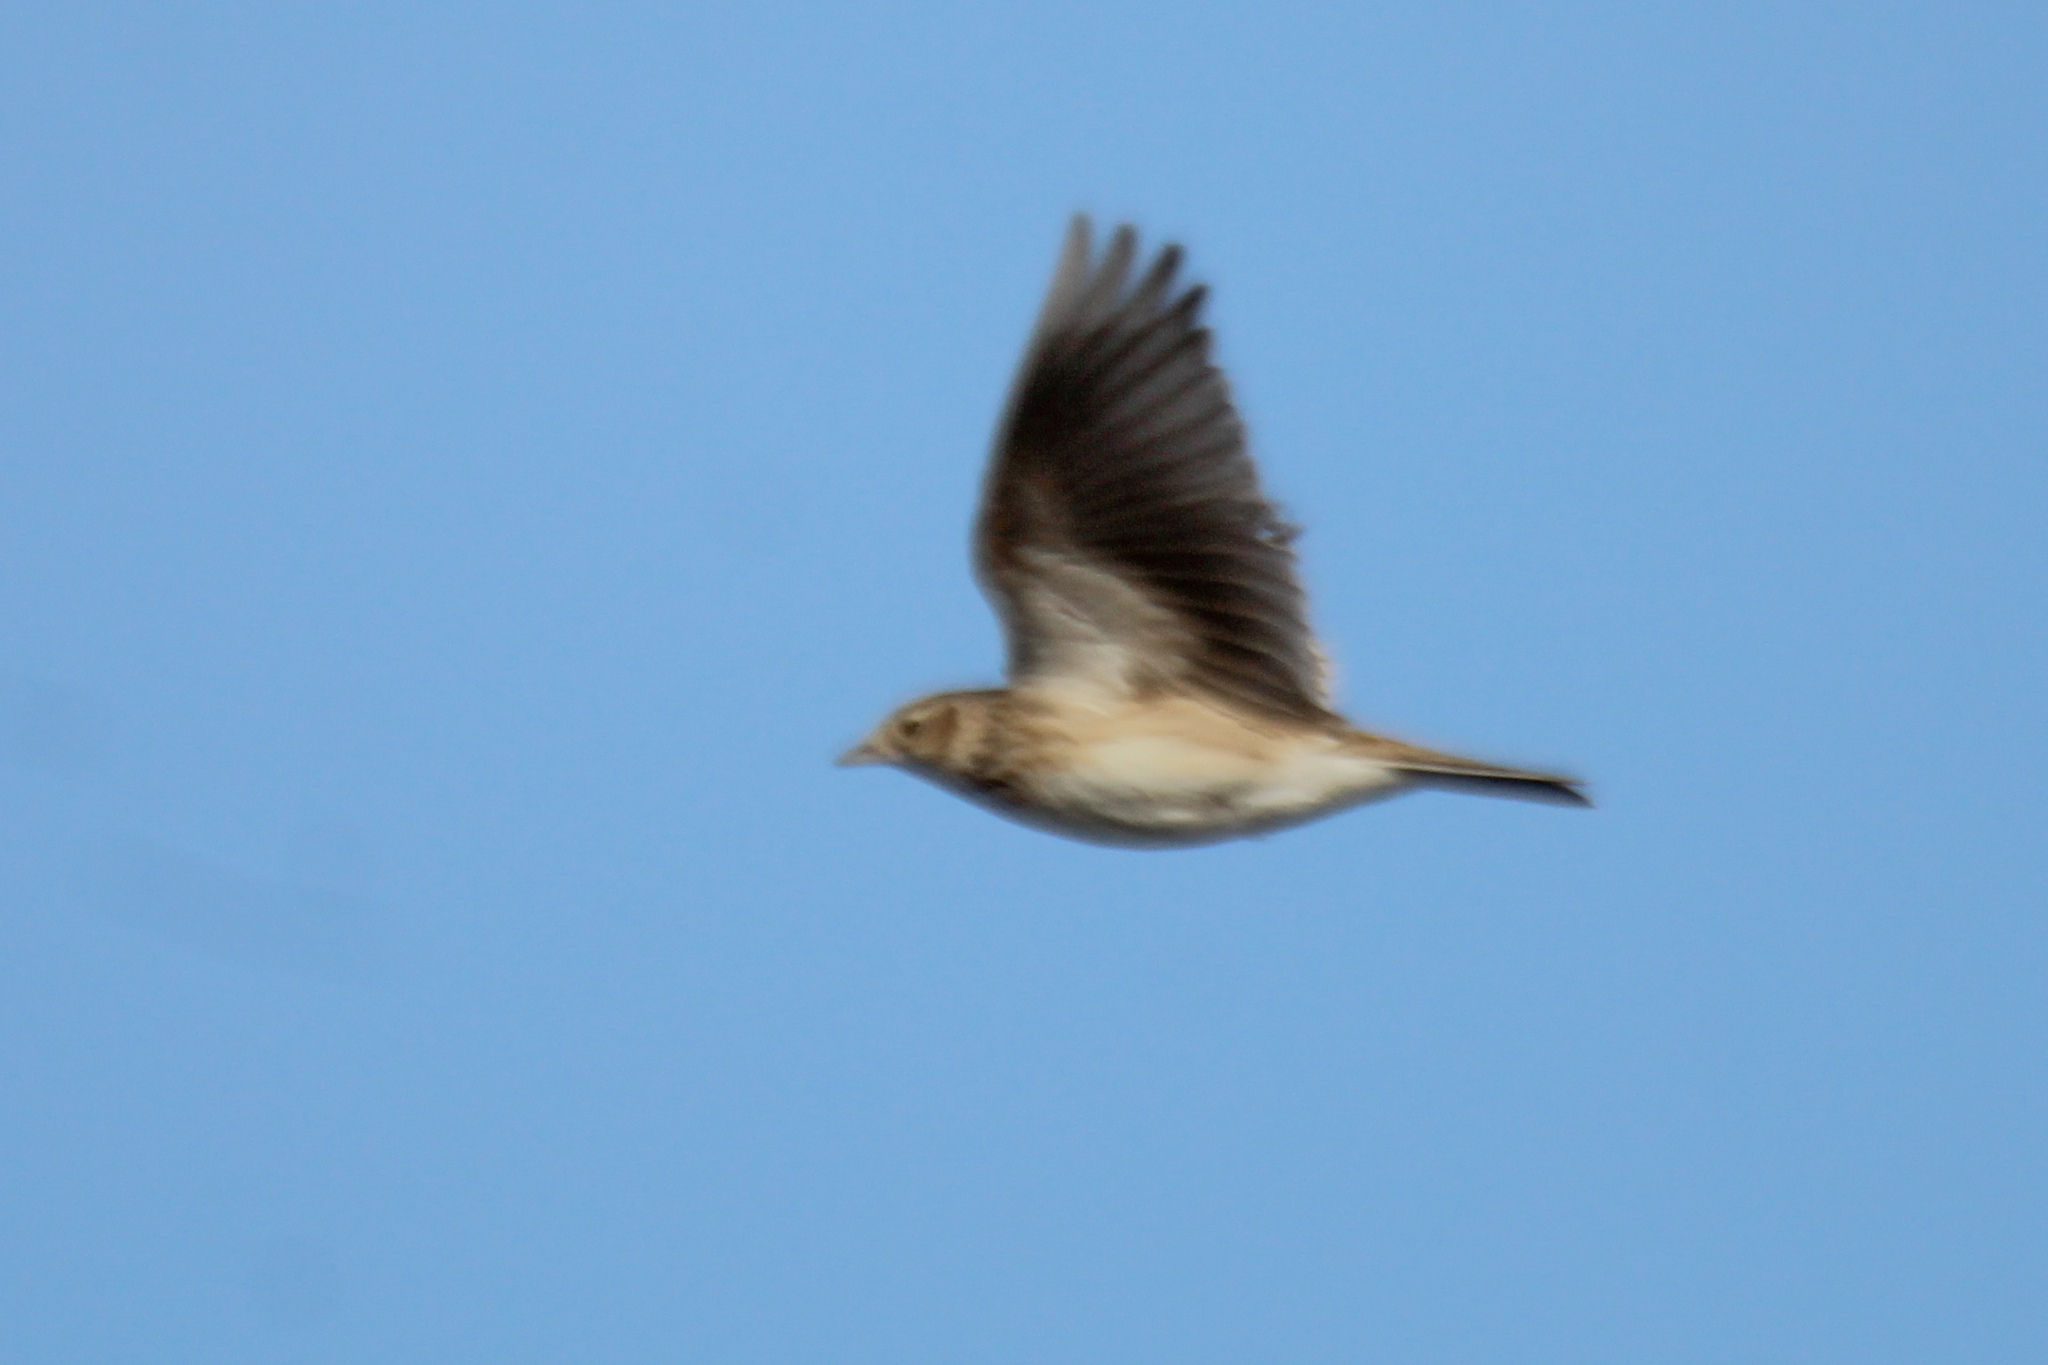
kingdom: Animalia
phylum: Chordata
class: Aves
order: Passeriformes
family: Alaudidae
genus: Alauda
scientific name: Alauda arvensis
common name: Eurasian skylark
